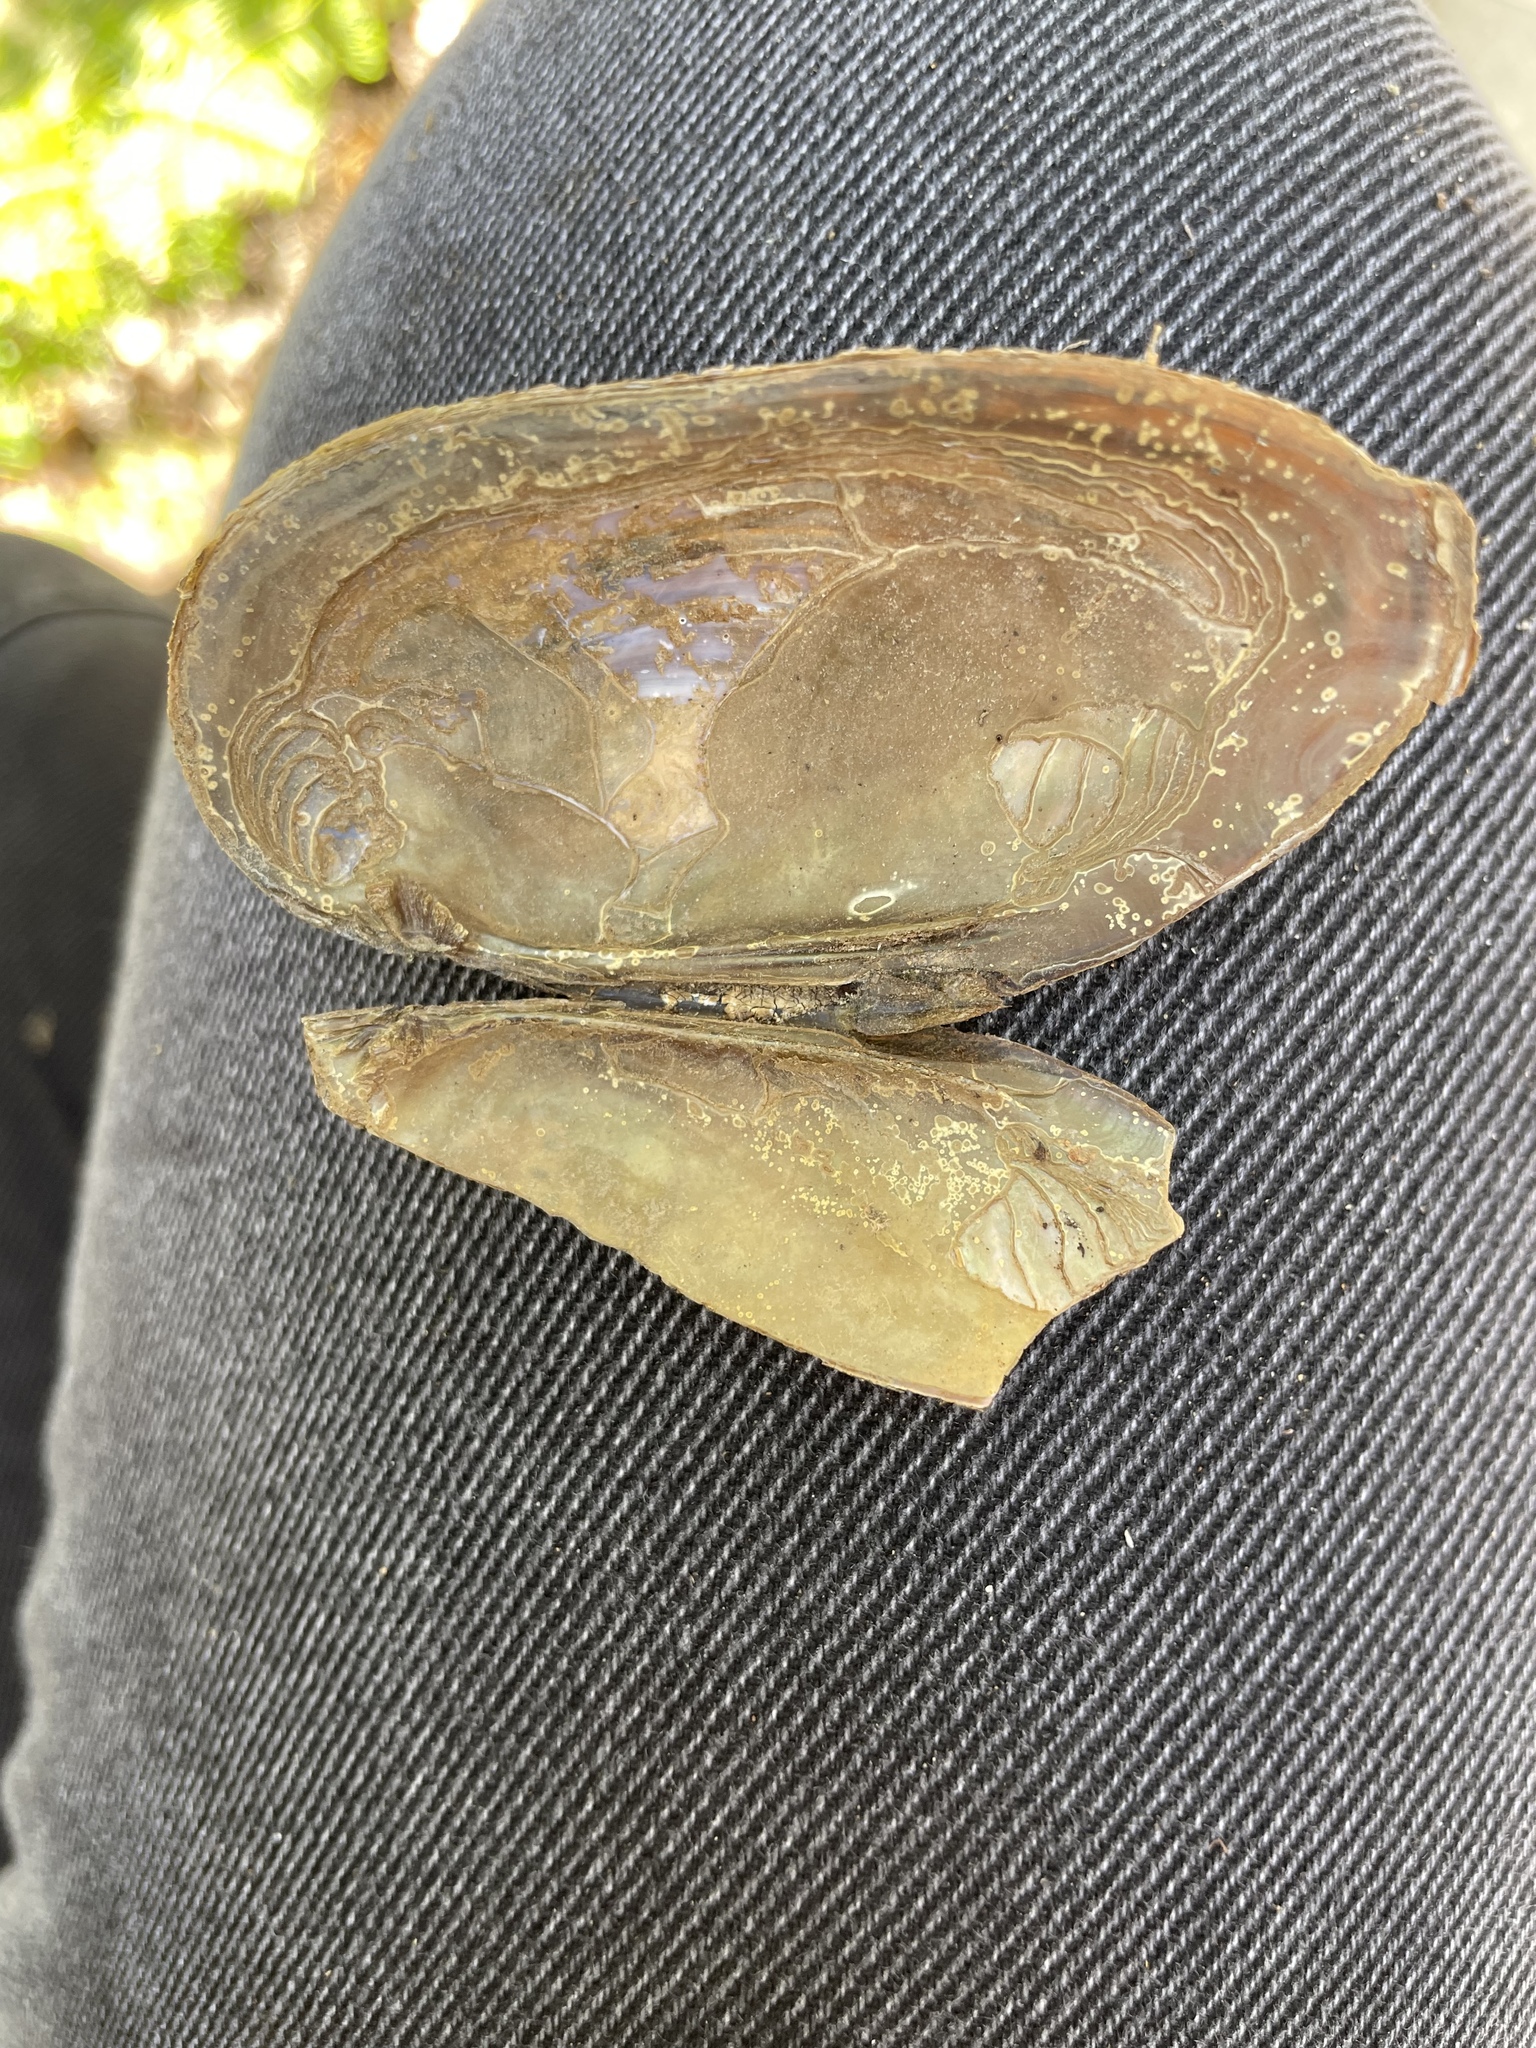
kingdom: Animalia
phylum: Mollusca
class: Bivalvia
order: Unionida
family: Unionidae
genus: Elliptio
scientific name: Elliptio complanata
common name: Eastern elliptio
